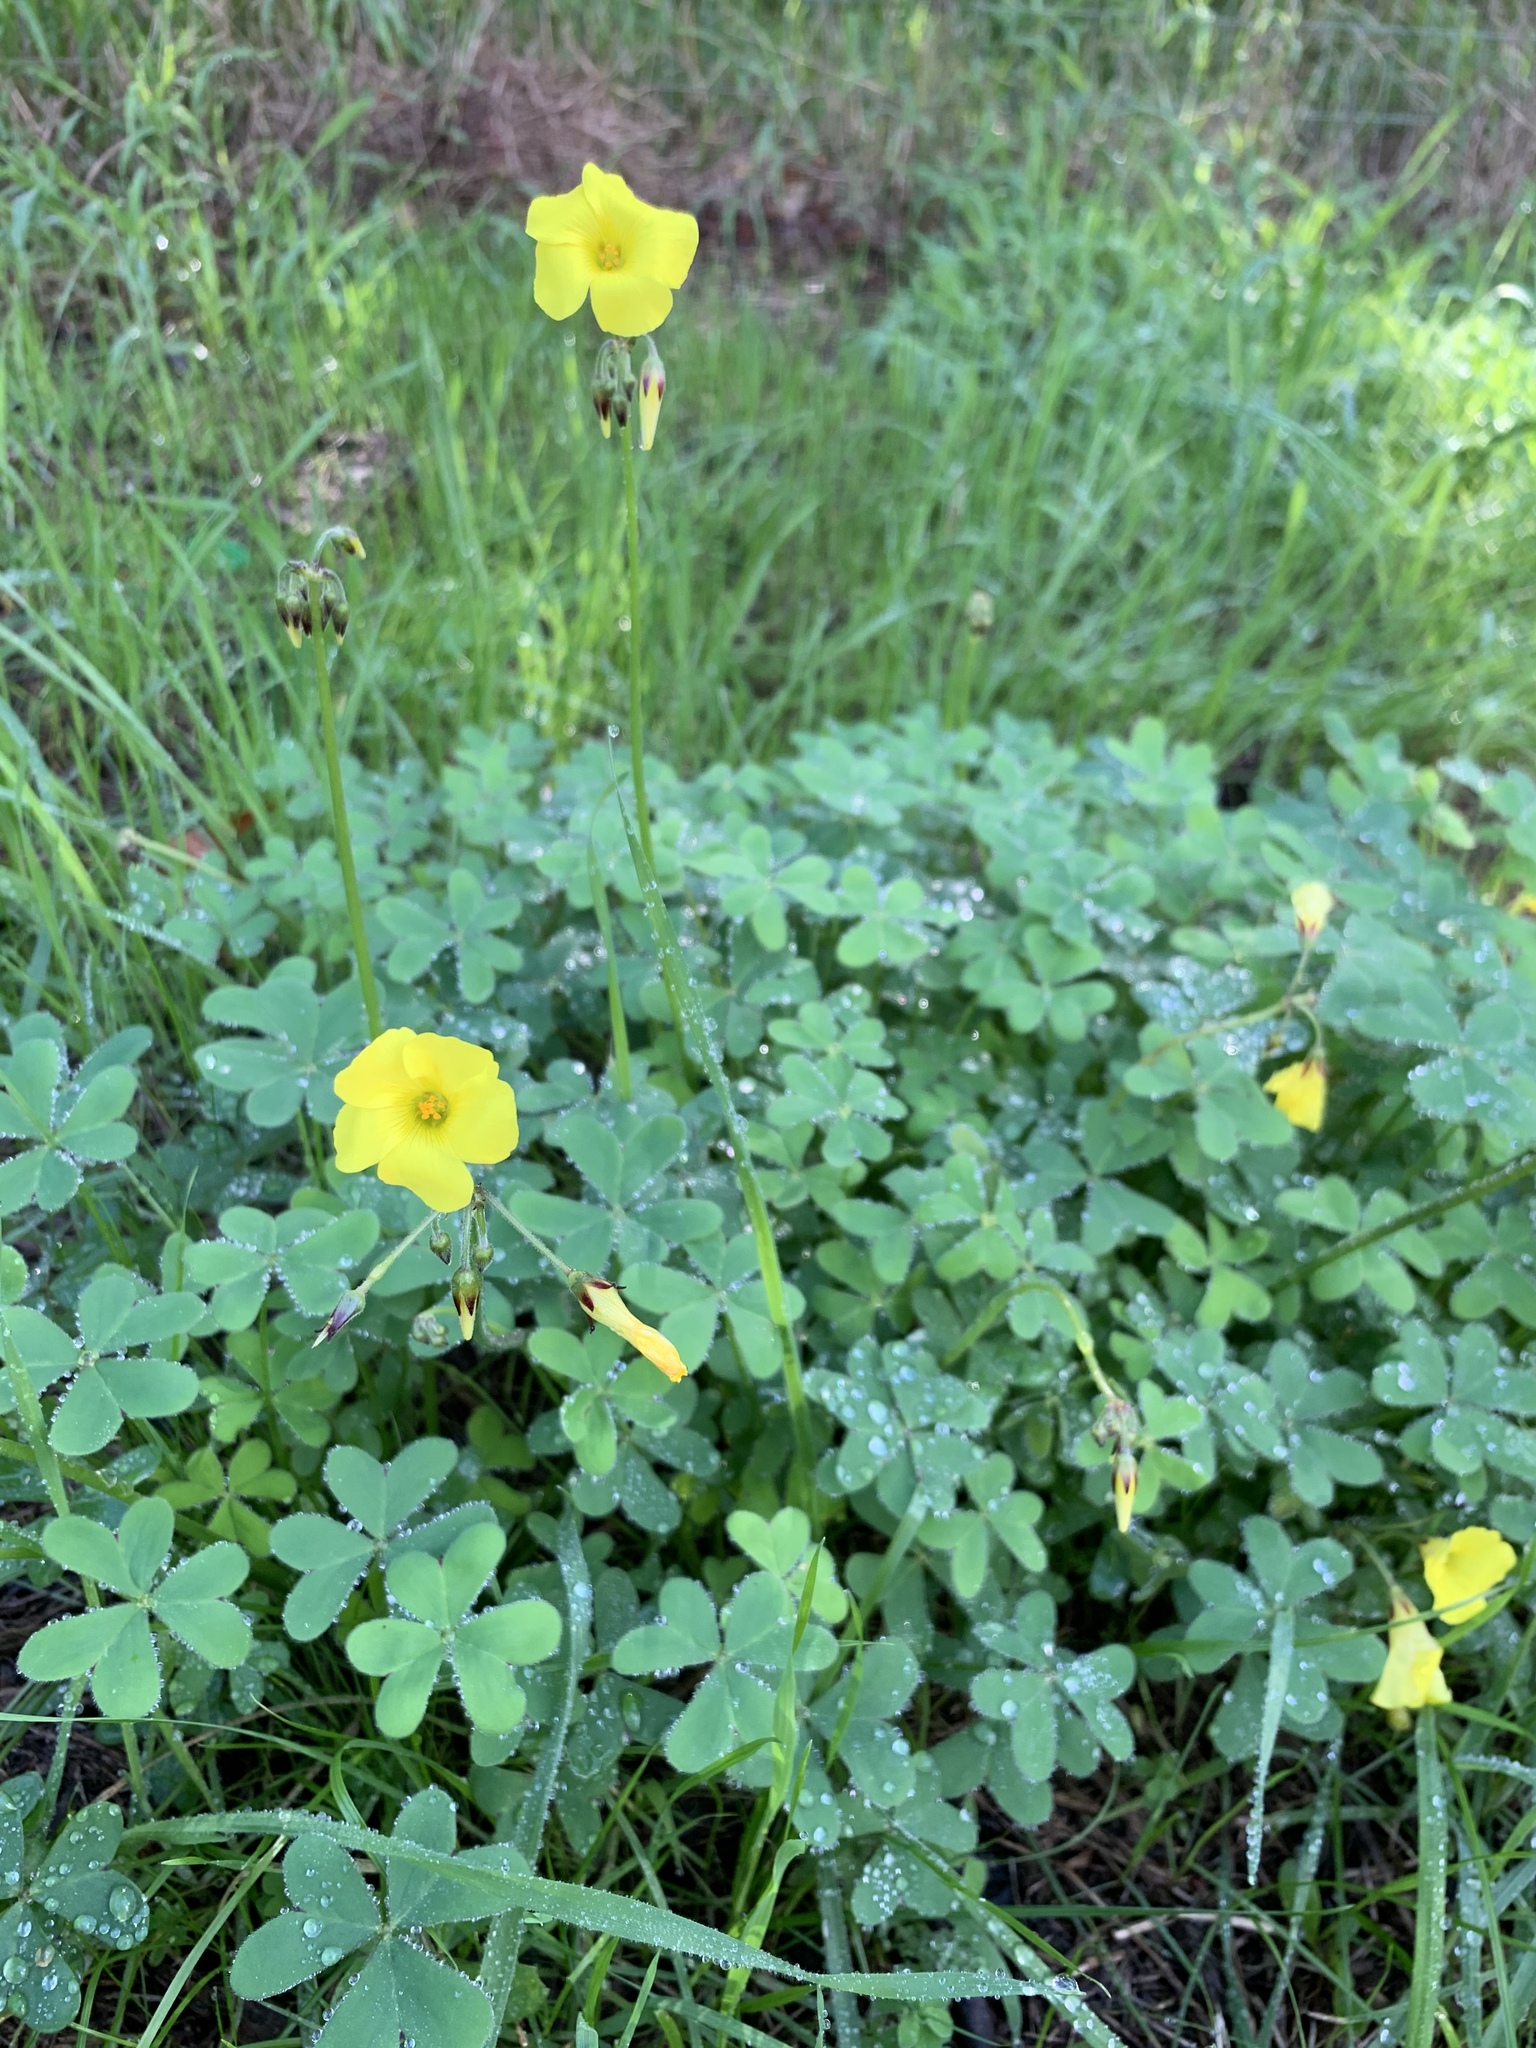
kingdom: Plantae
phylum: Tracheophyta
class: Magnoliopsida
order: Oxalidales
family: Oxalidaceae
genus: Oxalis
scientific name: Oxalis pes-caprae
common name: Bermuda-buttercup
